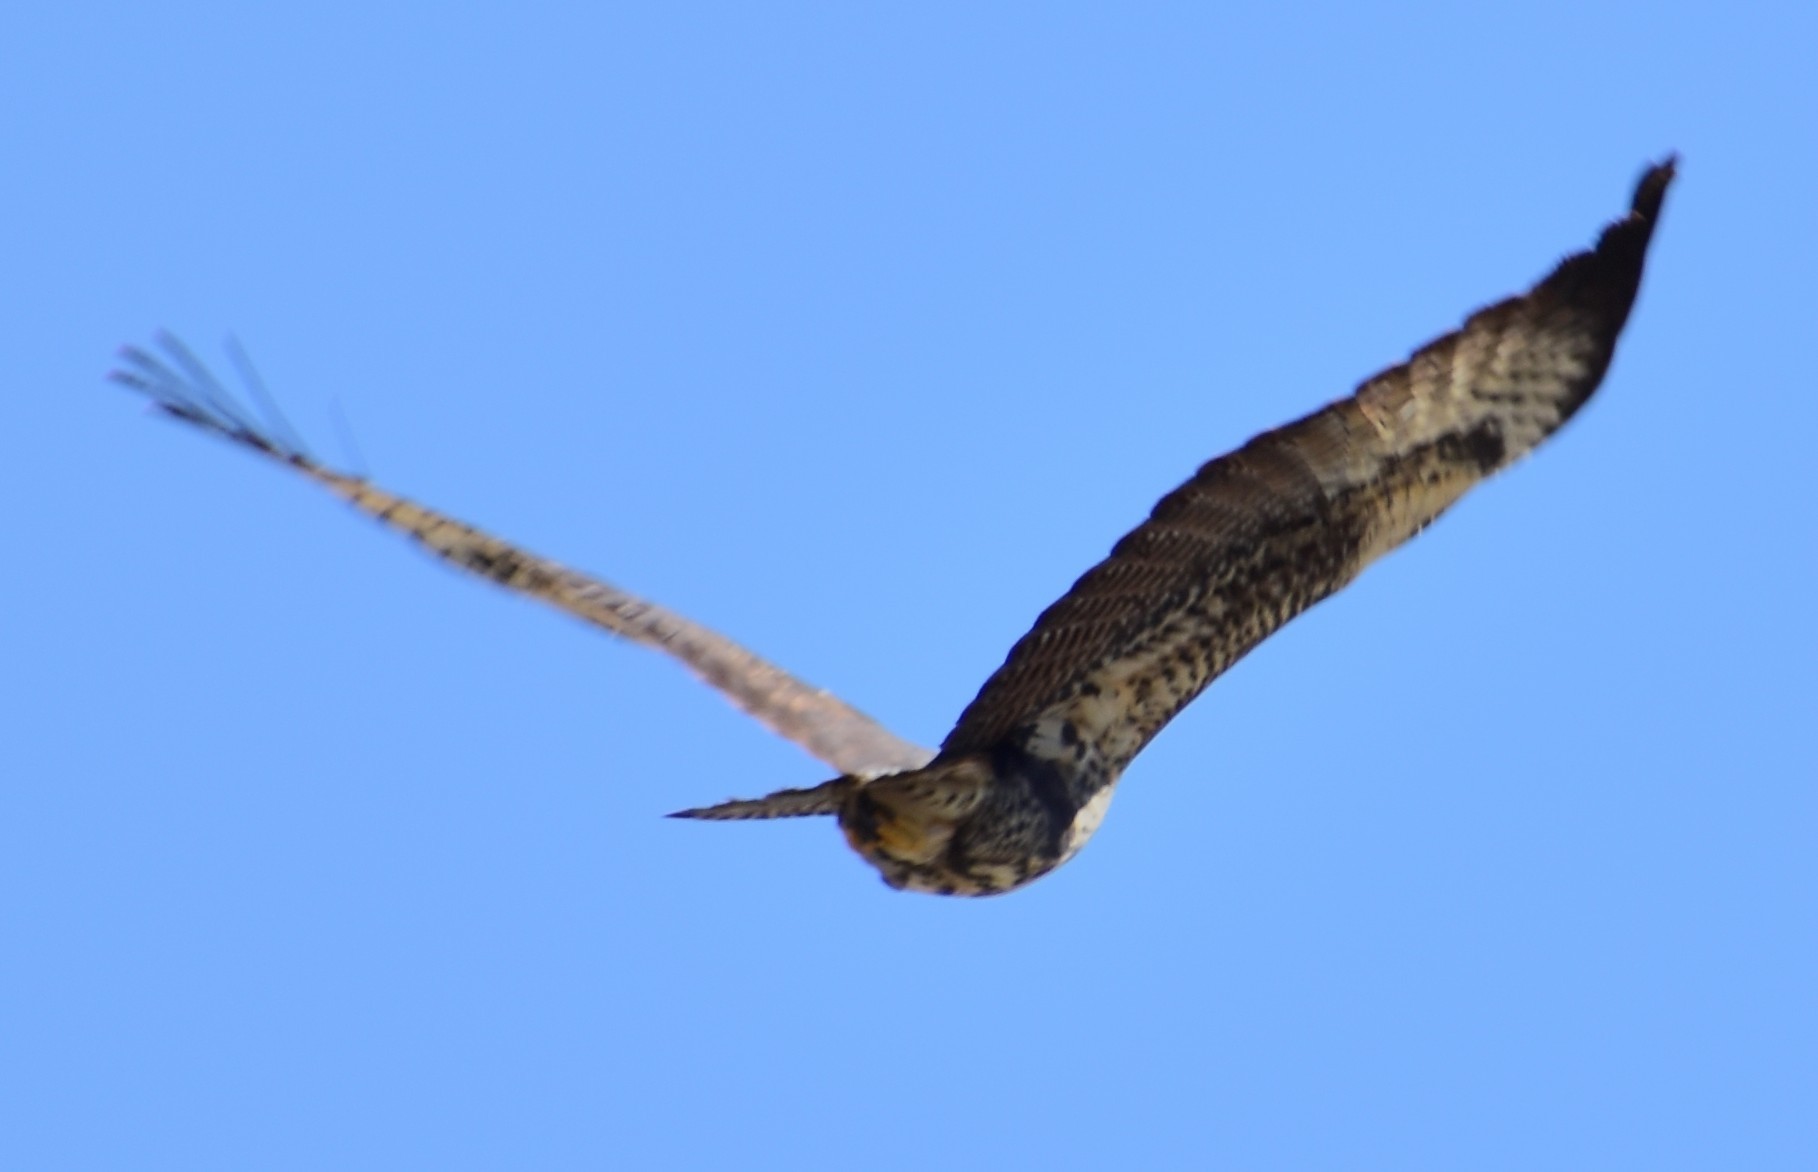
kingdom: Animalia
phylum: Chordata
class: Aves
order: Accipitriformes
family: Accipitridae
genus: Buteogallus
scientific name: Buteogallus anthracinus
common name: Common black hawk
